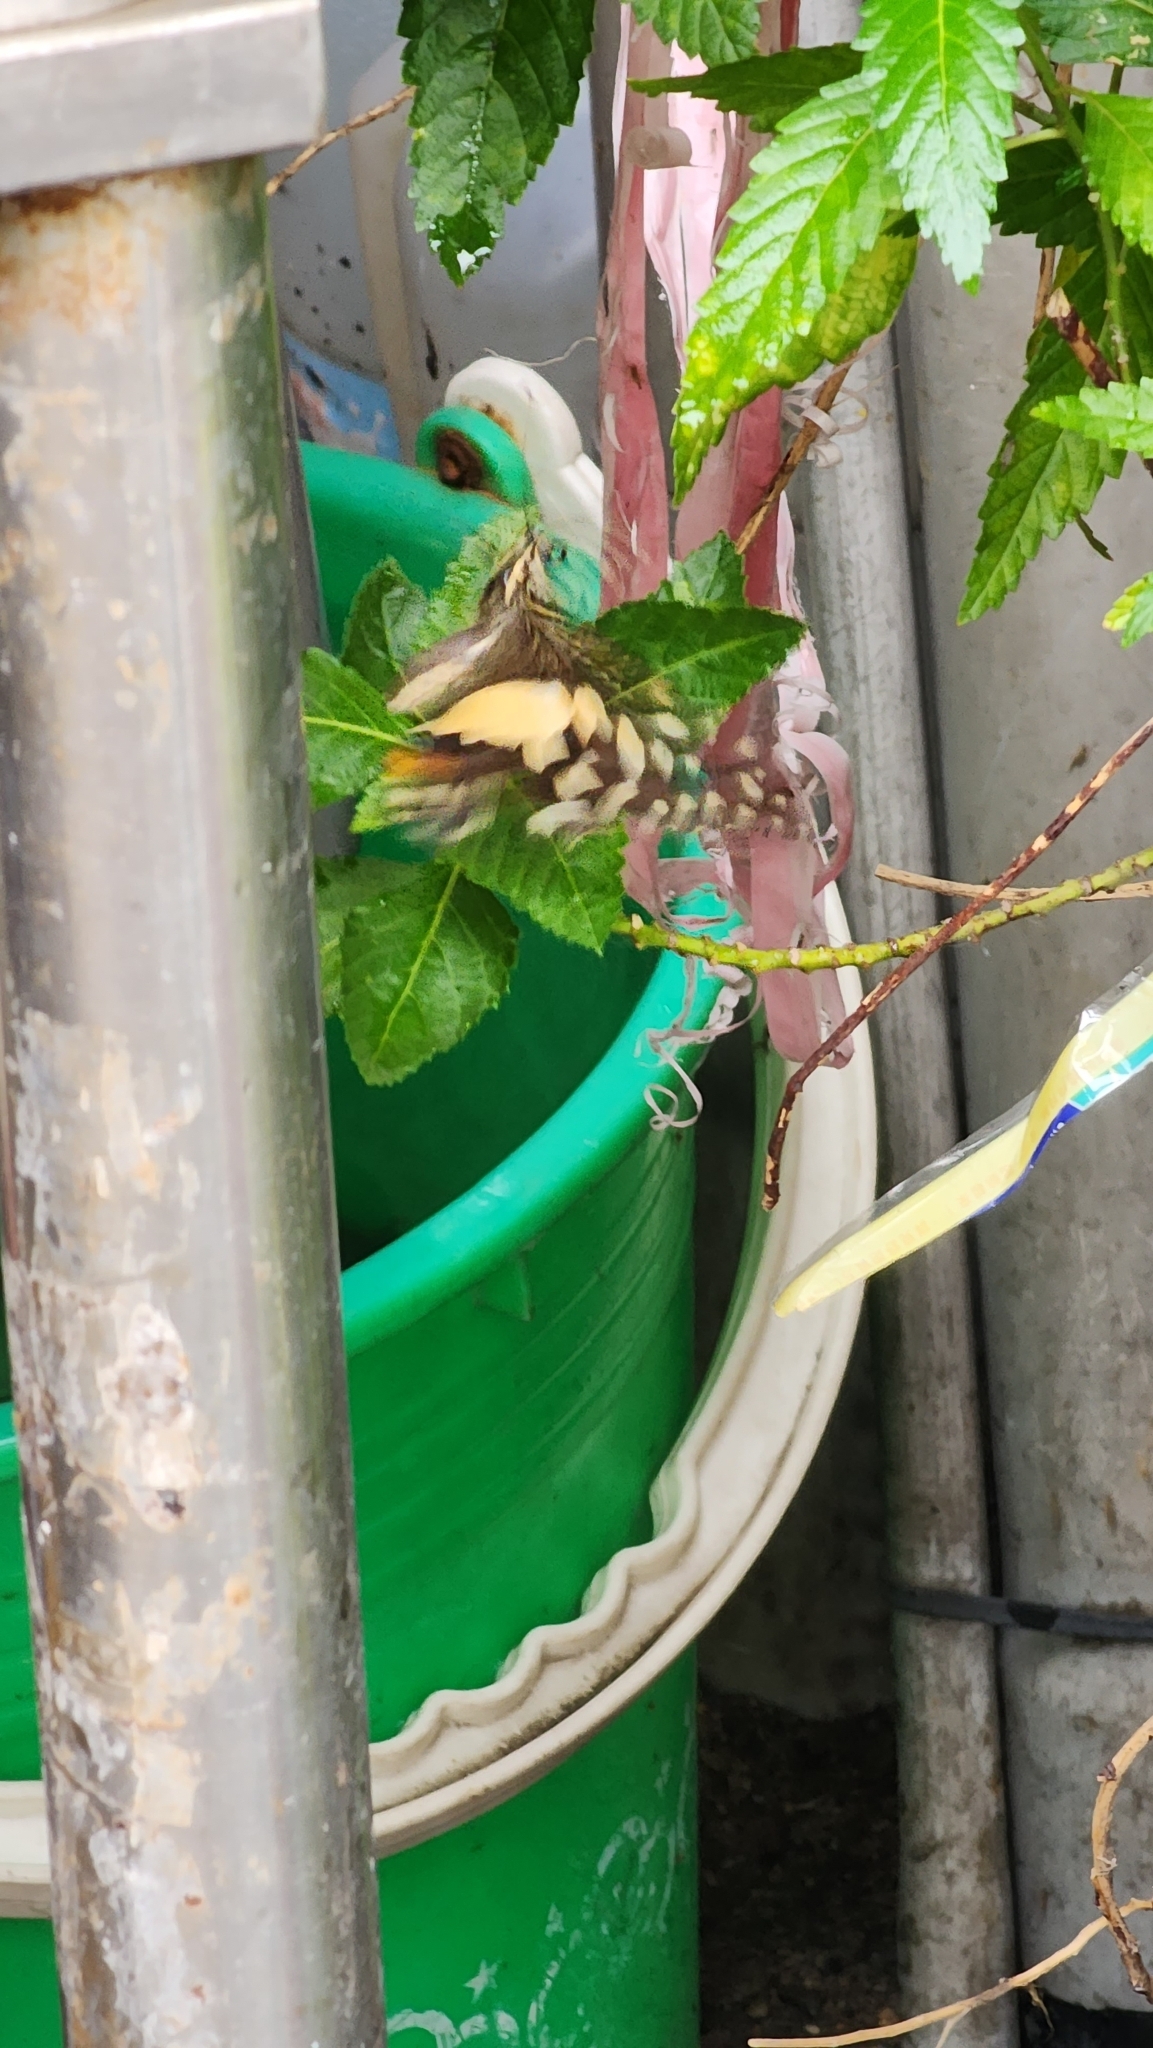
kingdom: Animalia
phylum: Arthropoda
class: Insecta
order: Lepidoptera
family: Papilionidae
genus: Papilio
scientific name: Papilio demoleus
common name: Lime butterfly
